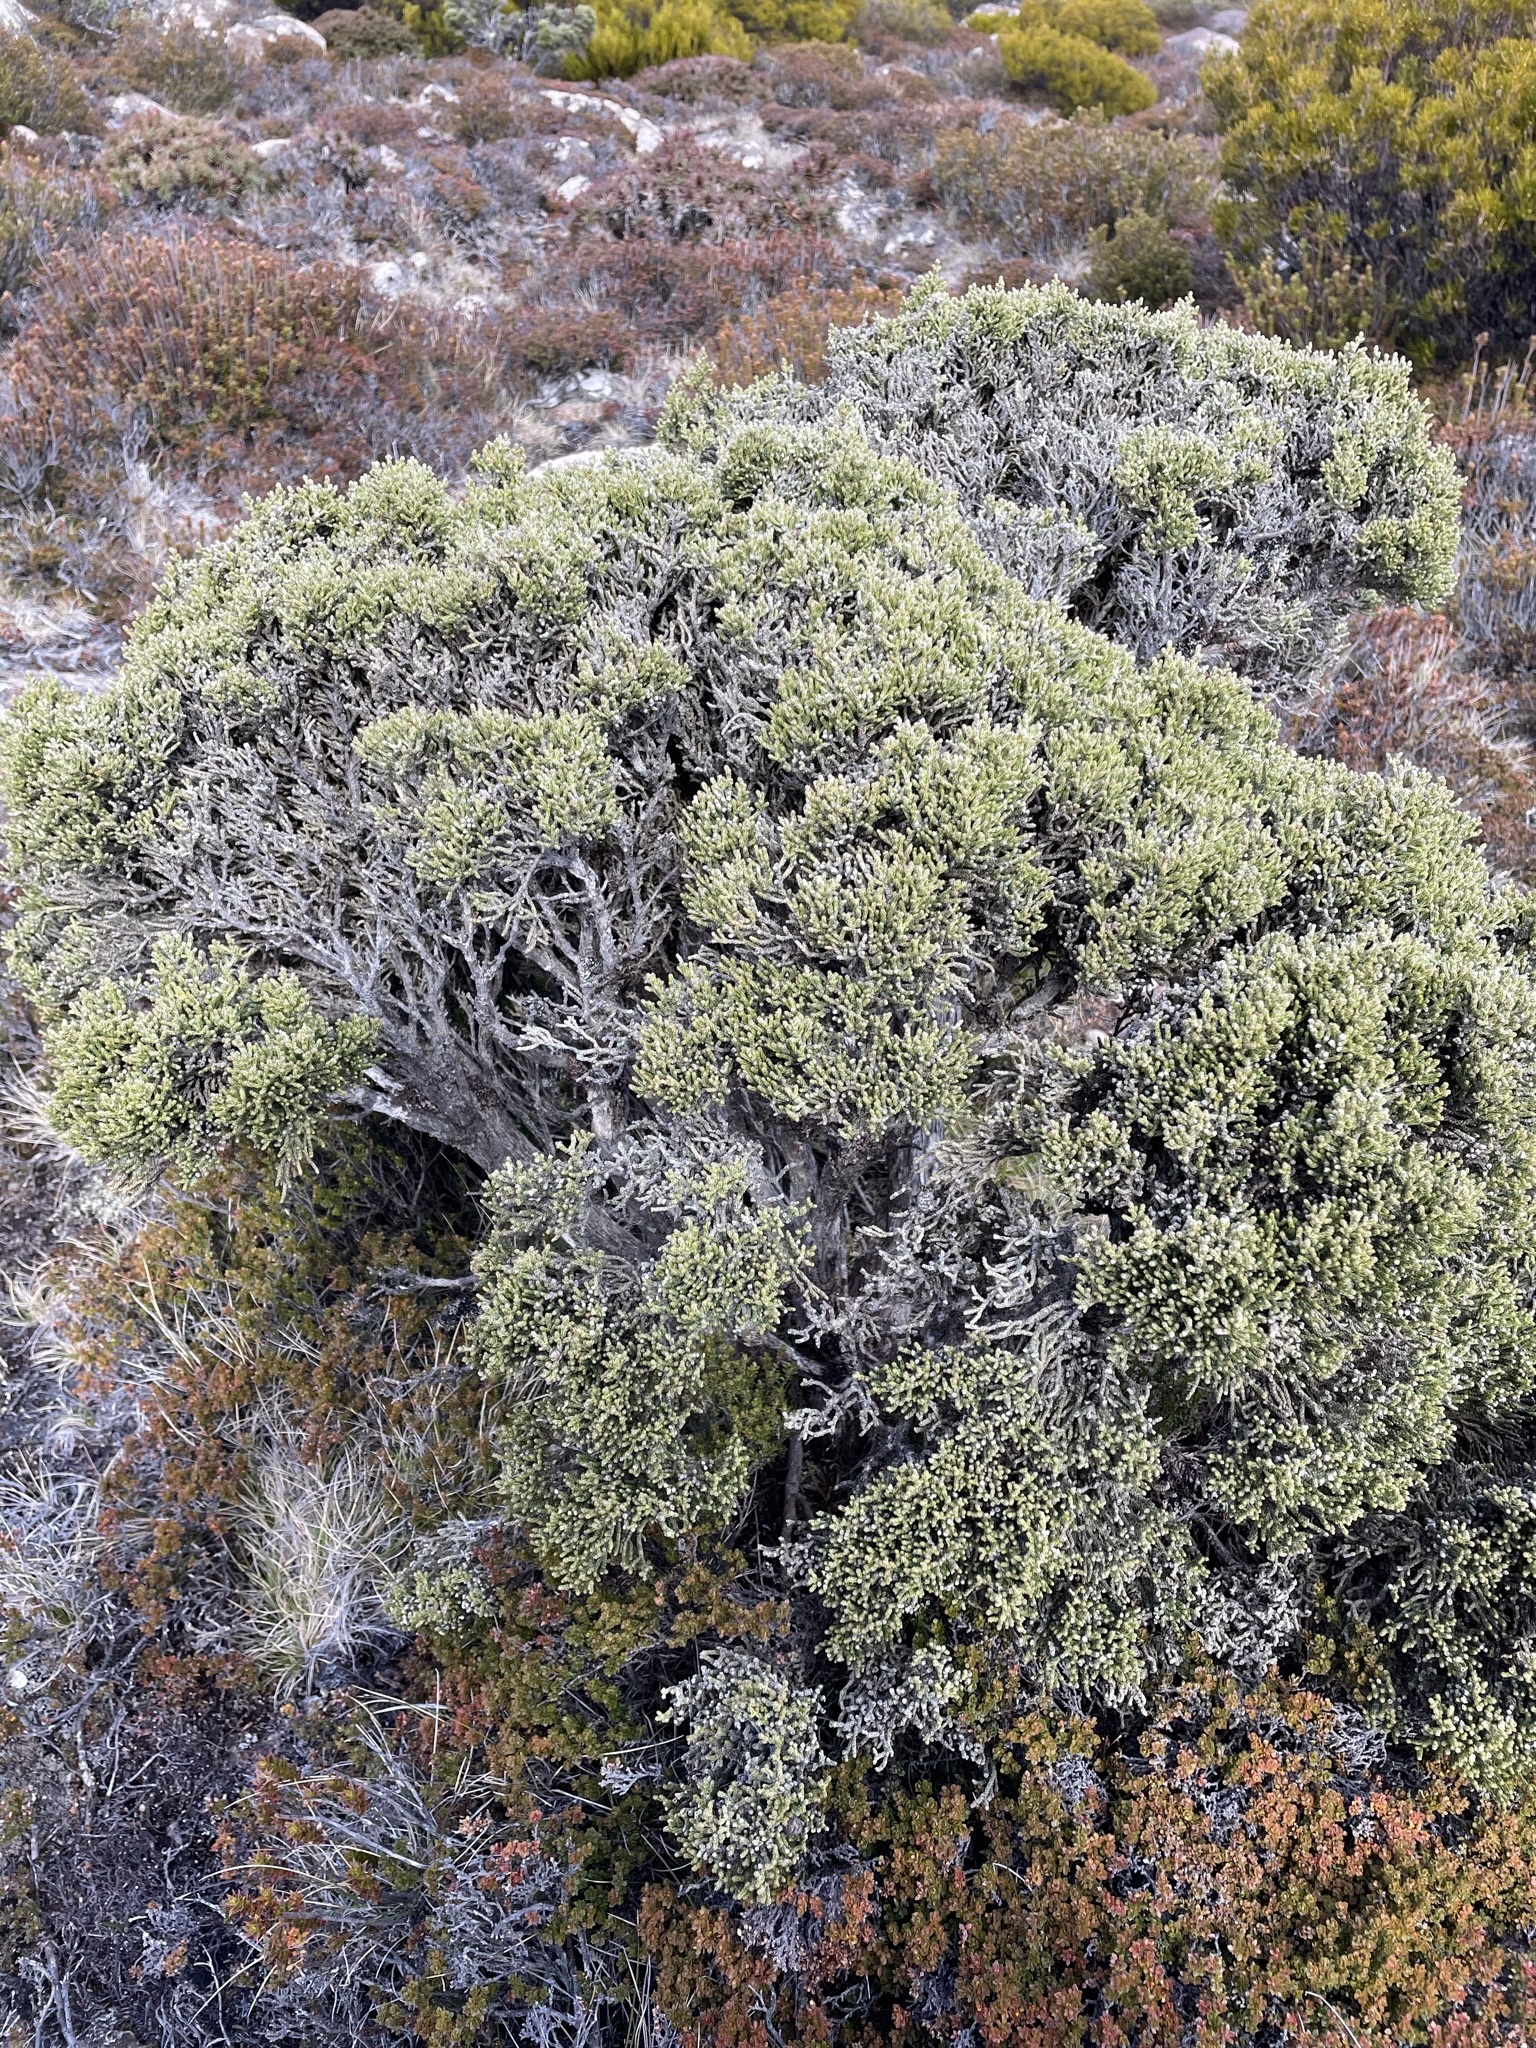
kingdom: Plantae
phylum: Tracheophyta
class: Magnoliopsida
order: Asterales
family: Asteraceae
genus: Ozothamnus
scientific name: Ozothamnus hookeri
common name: Kerosene-bush
